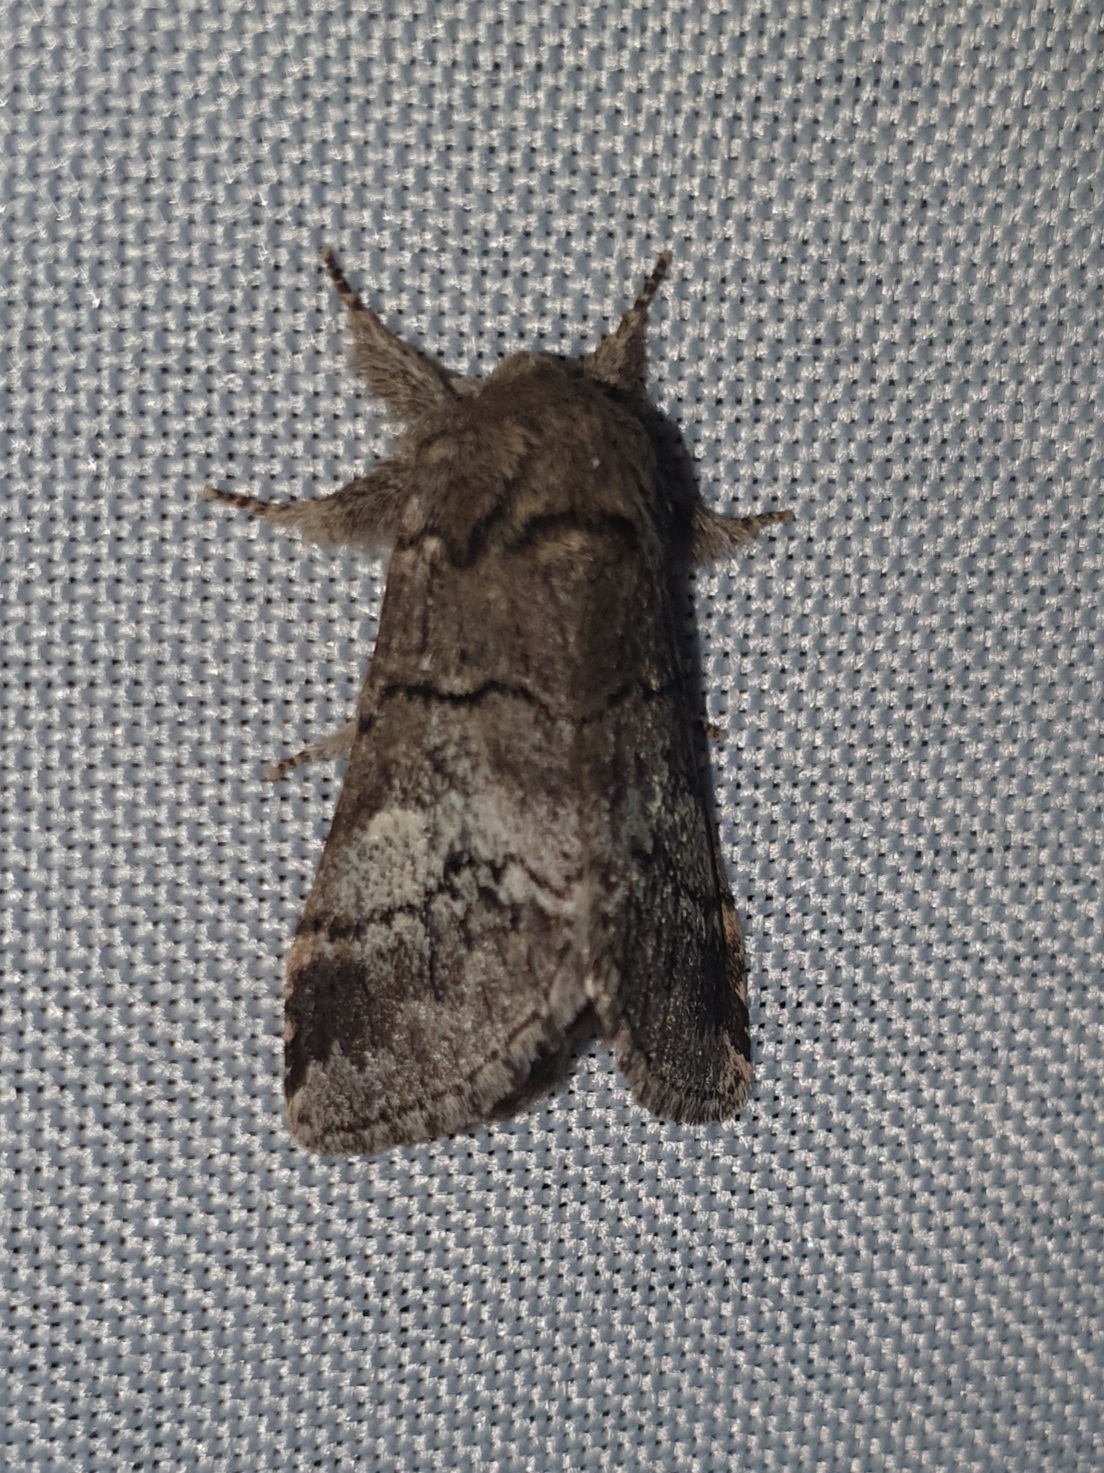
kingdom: Animalia
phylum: Arthropoda
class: Insecta
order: Lepidoptera
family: Notodontidae
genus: Drymonia
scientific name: Drymonia querna
